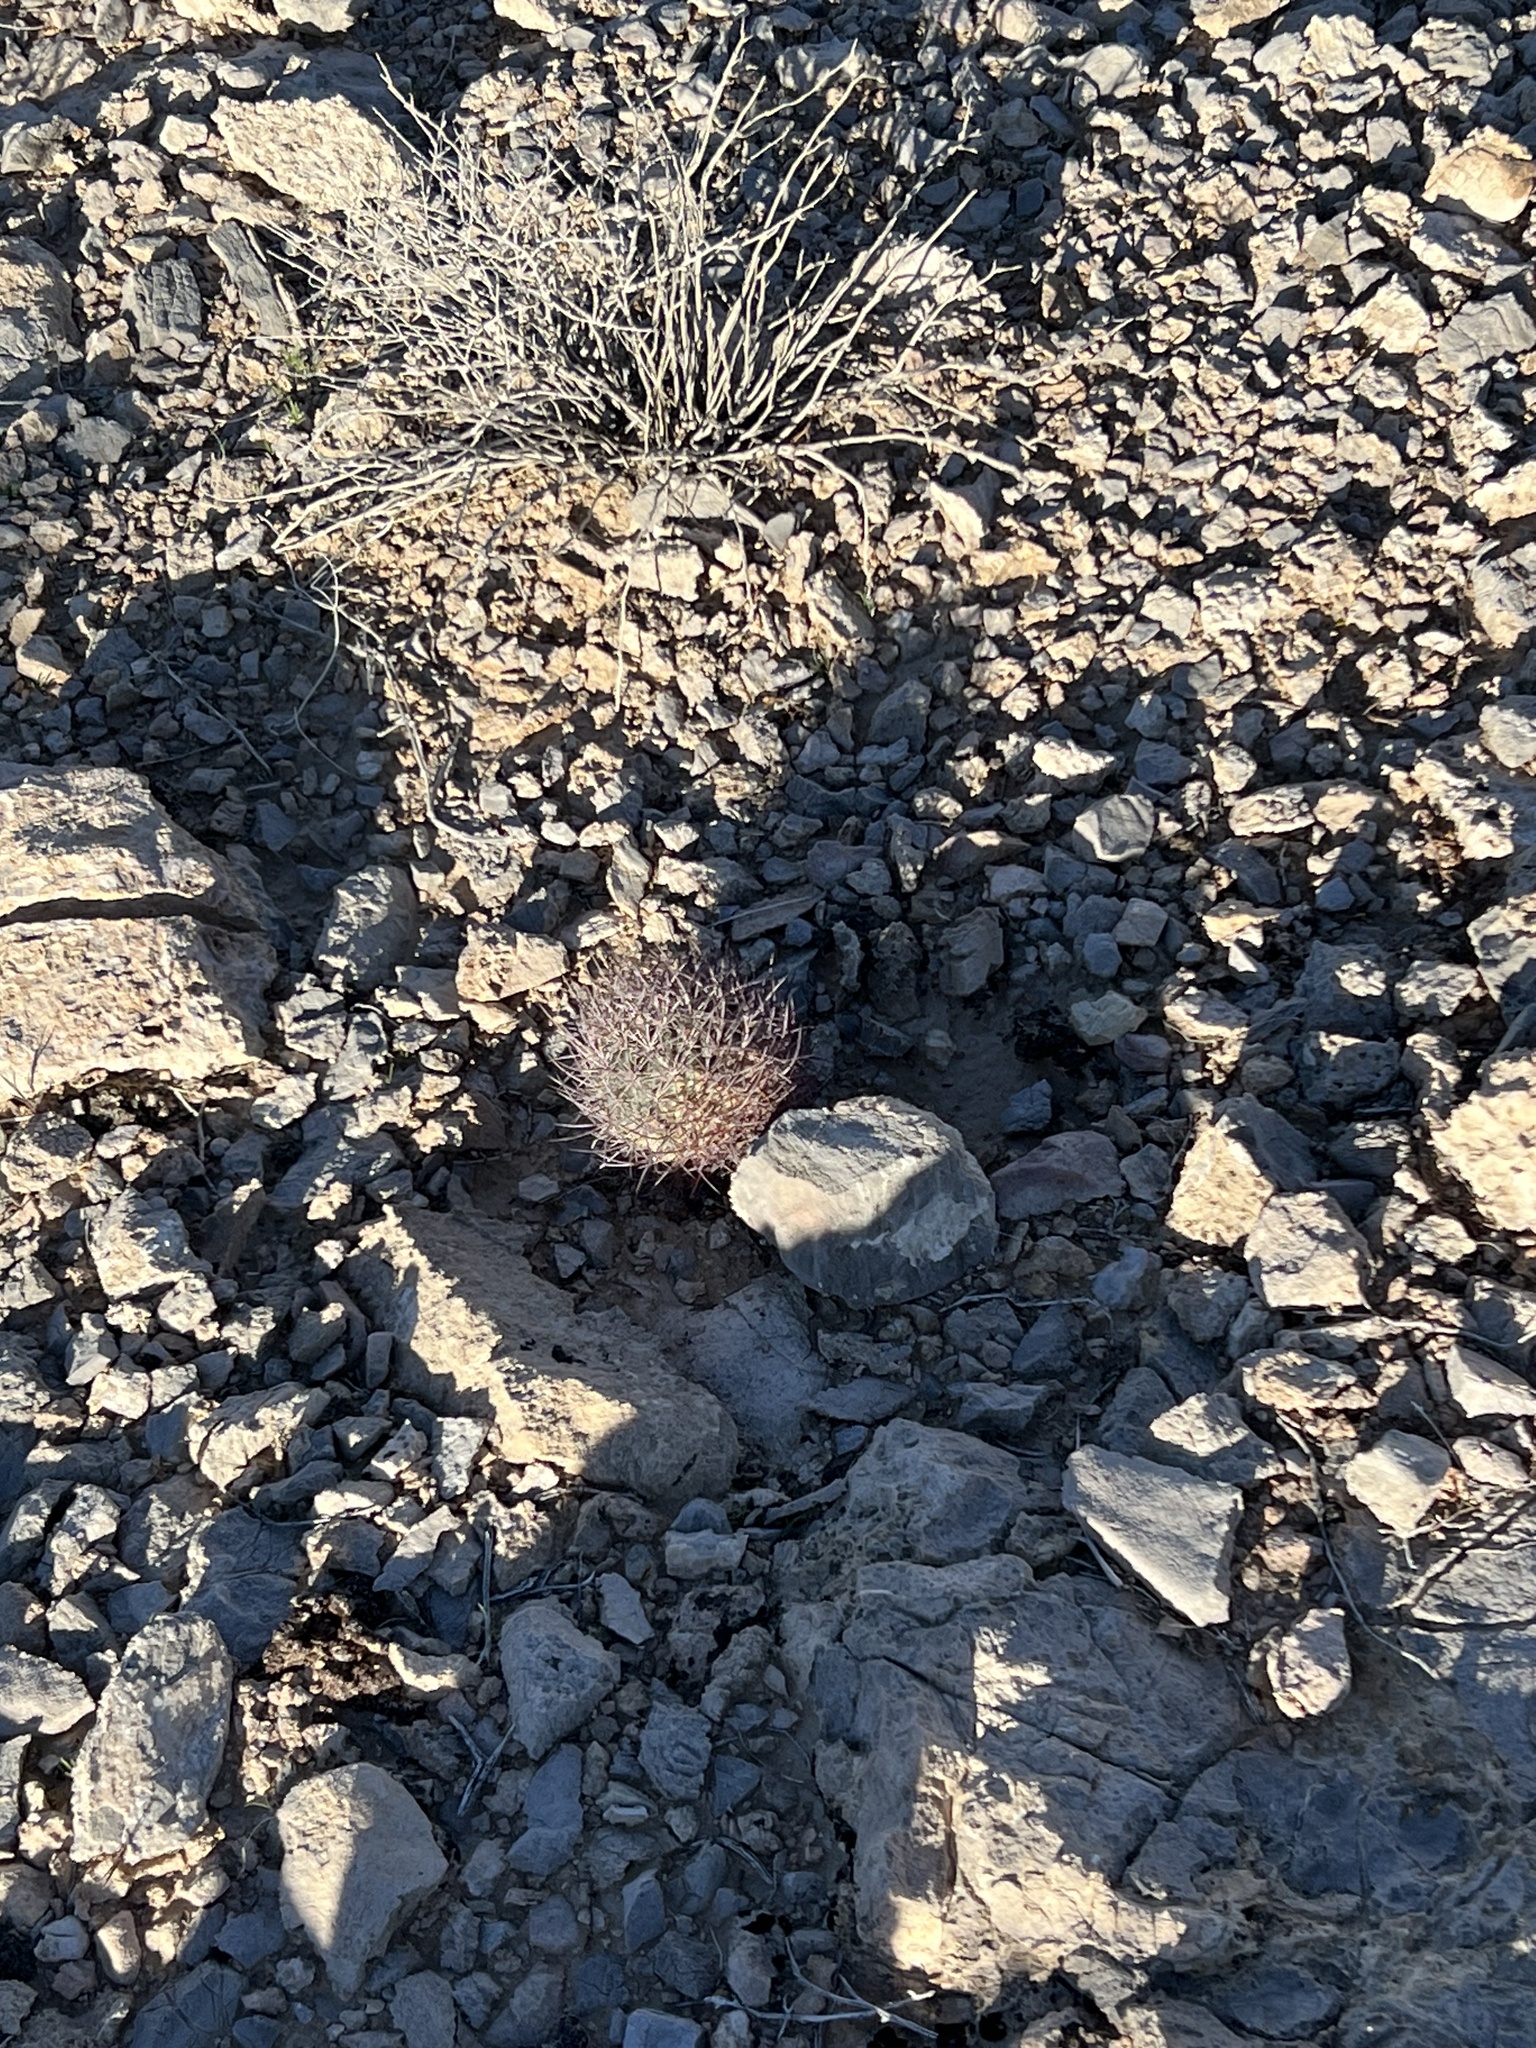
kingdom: Plantae
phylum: Tracheophyta
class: Magnoliopsida
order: Caryophyllales
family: Cactaceae
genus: Sclerocactus
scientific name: Sclerocactus johnsonii
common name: Eight-spine fishhook cactus
